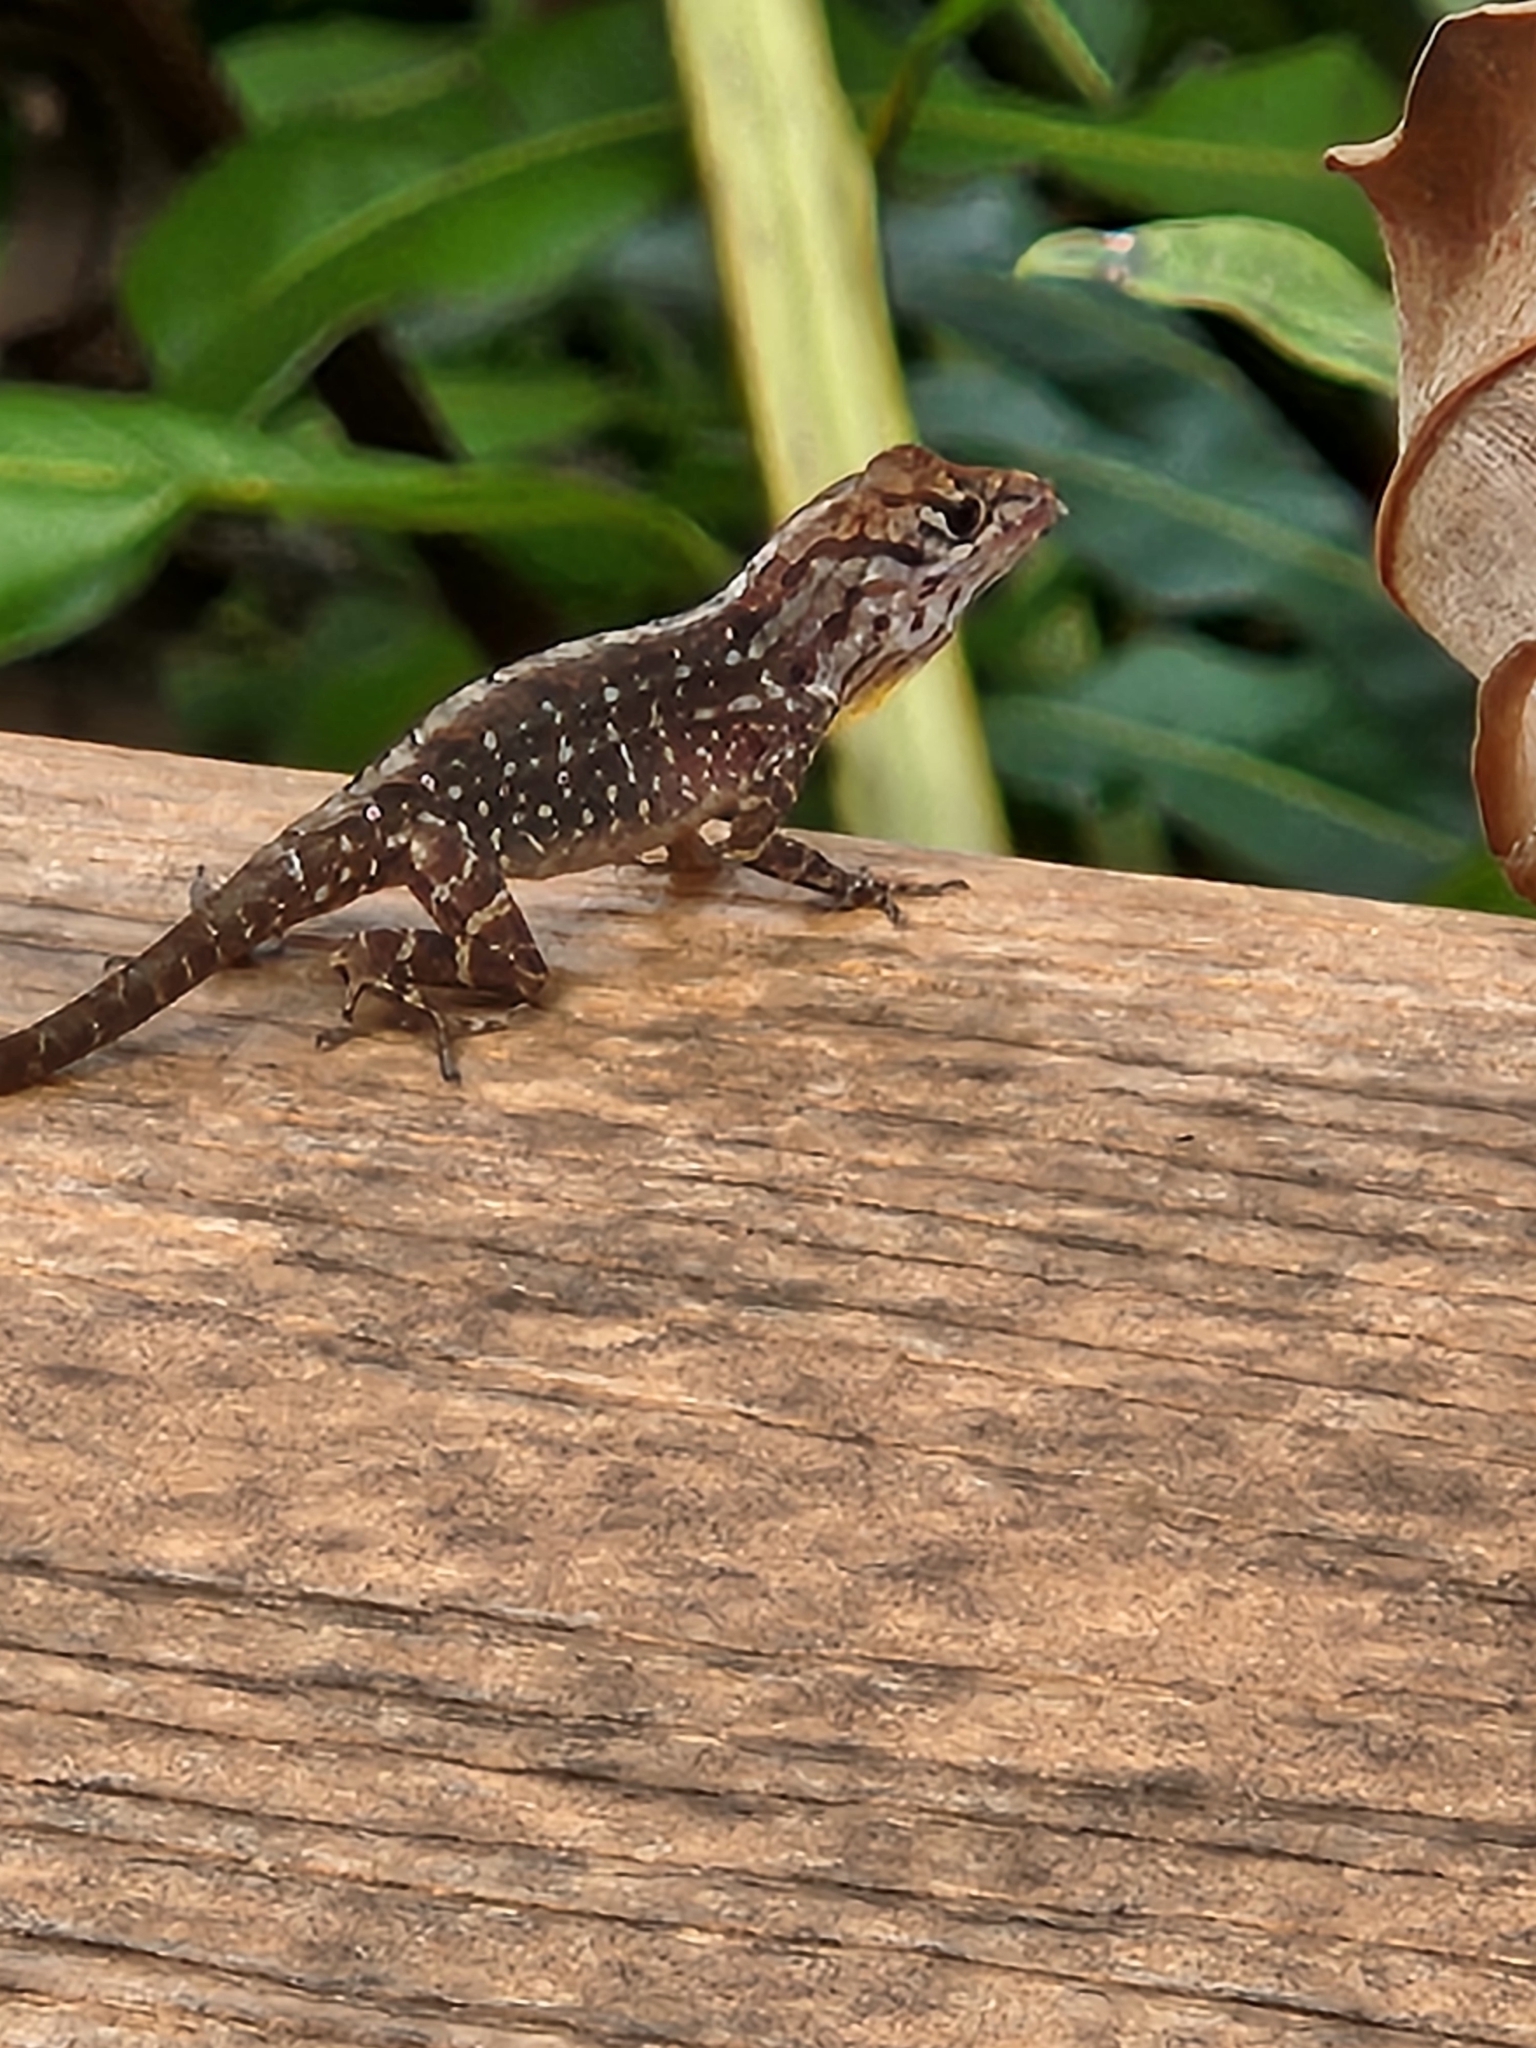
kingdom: Animalia
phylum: Chordata
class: Squamata
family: Dactyloidae
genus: Anolis
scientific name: Anolis sagrei
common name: Brown anole
